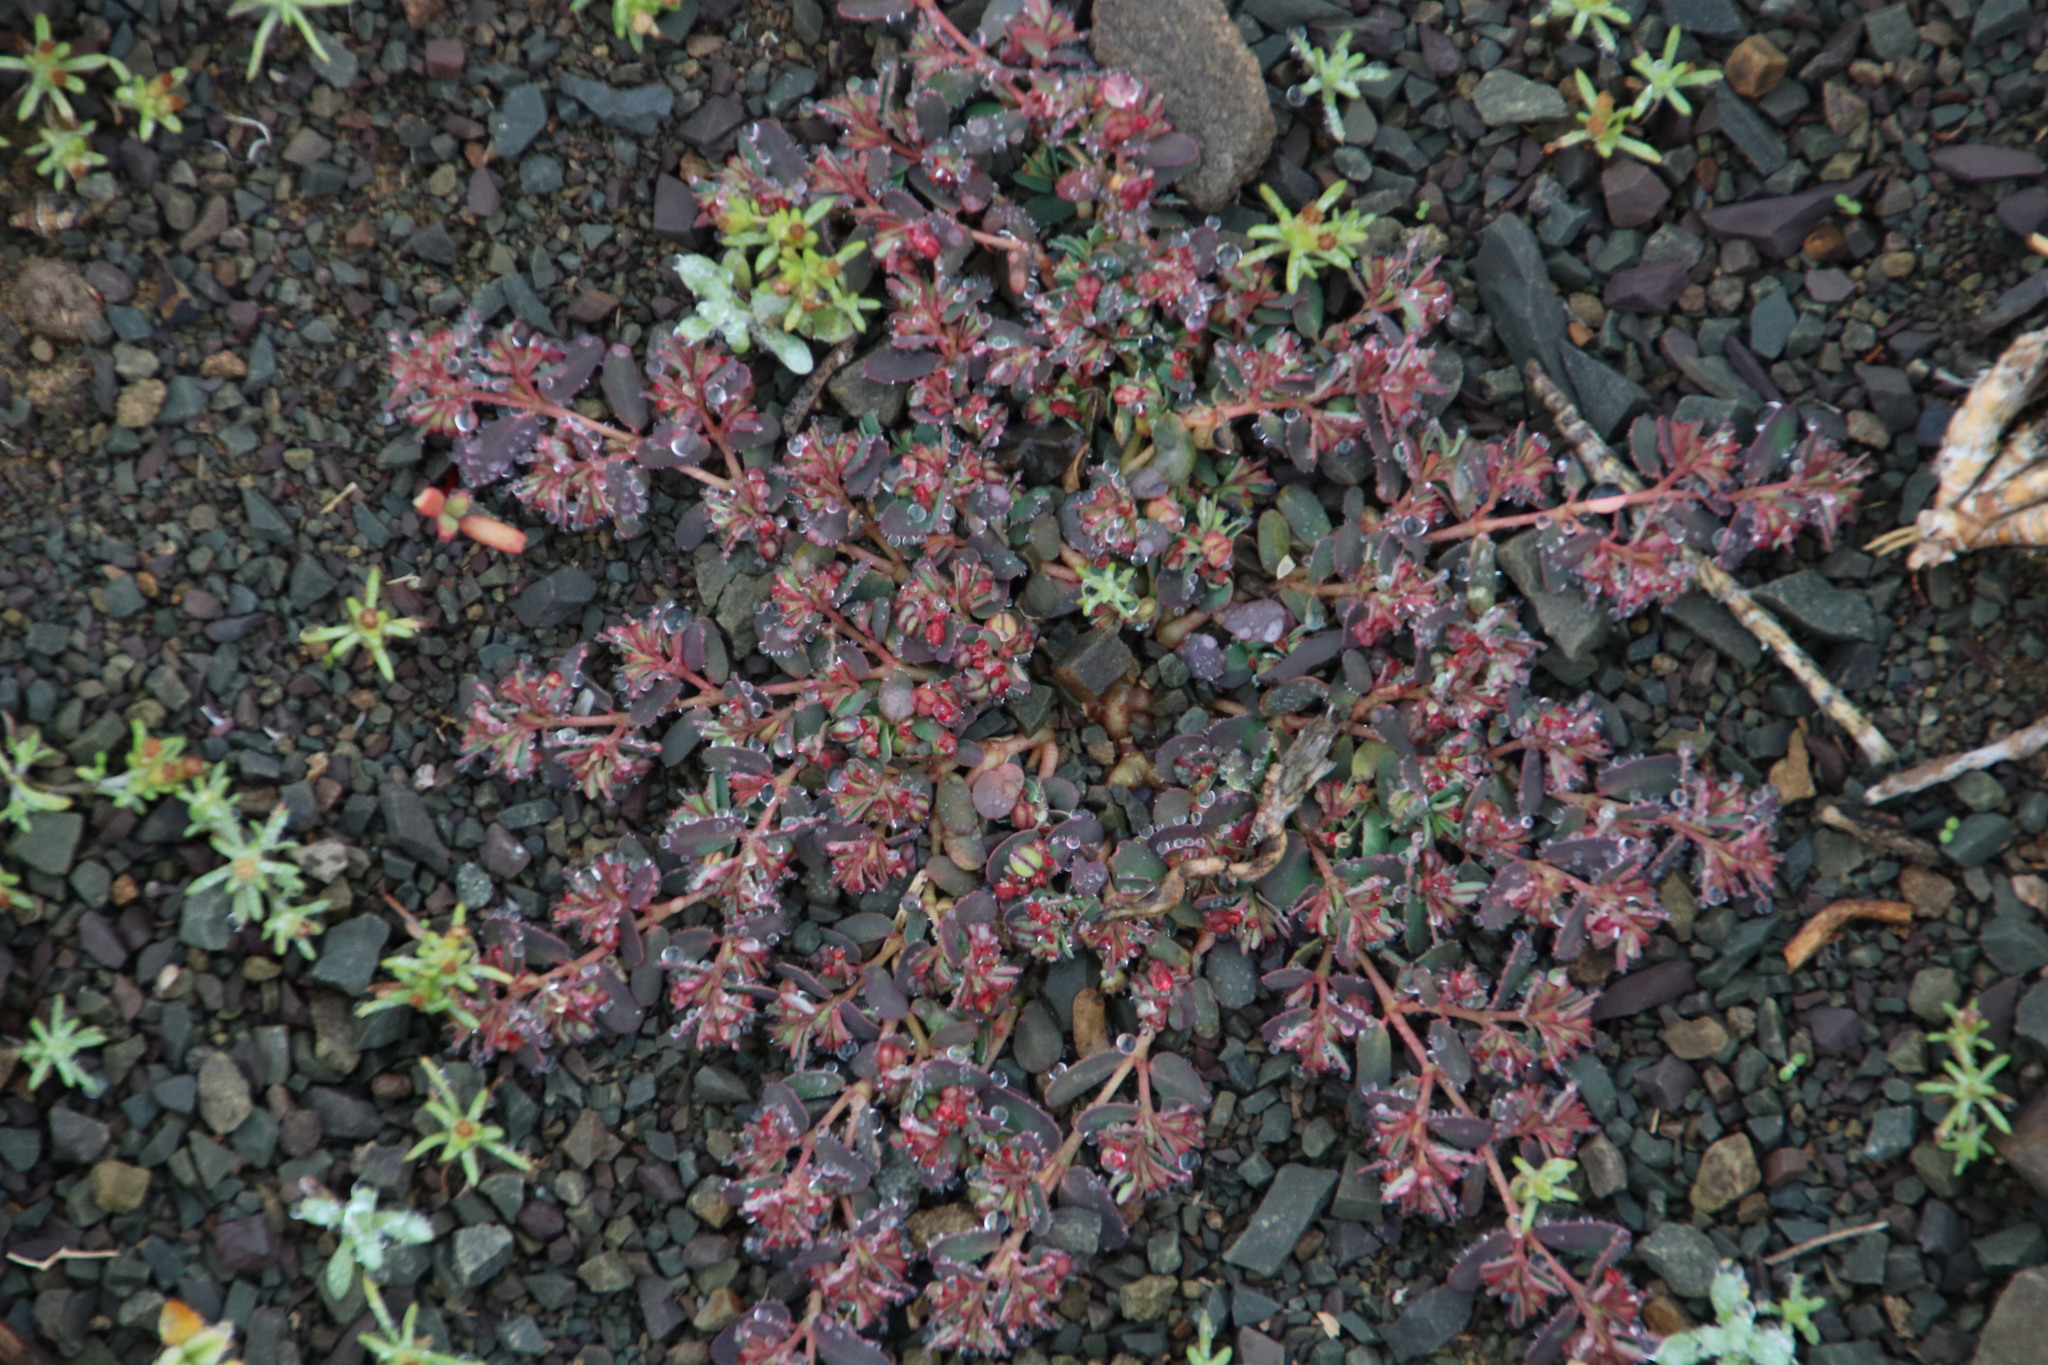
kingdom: Plantae
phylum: Tracheophyta
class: Magnoliopsida
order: Malpighiales
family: Euphorbiaceae
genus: Euphorbia
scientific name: Euphorbia inaequilatera
